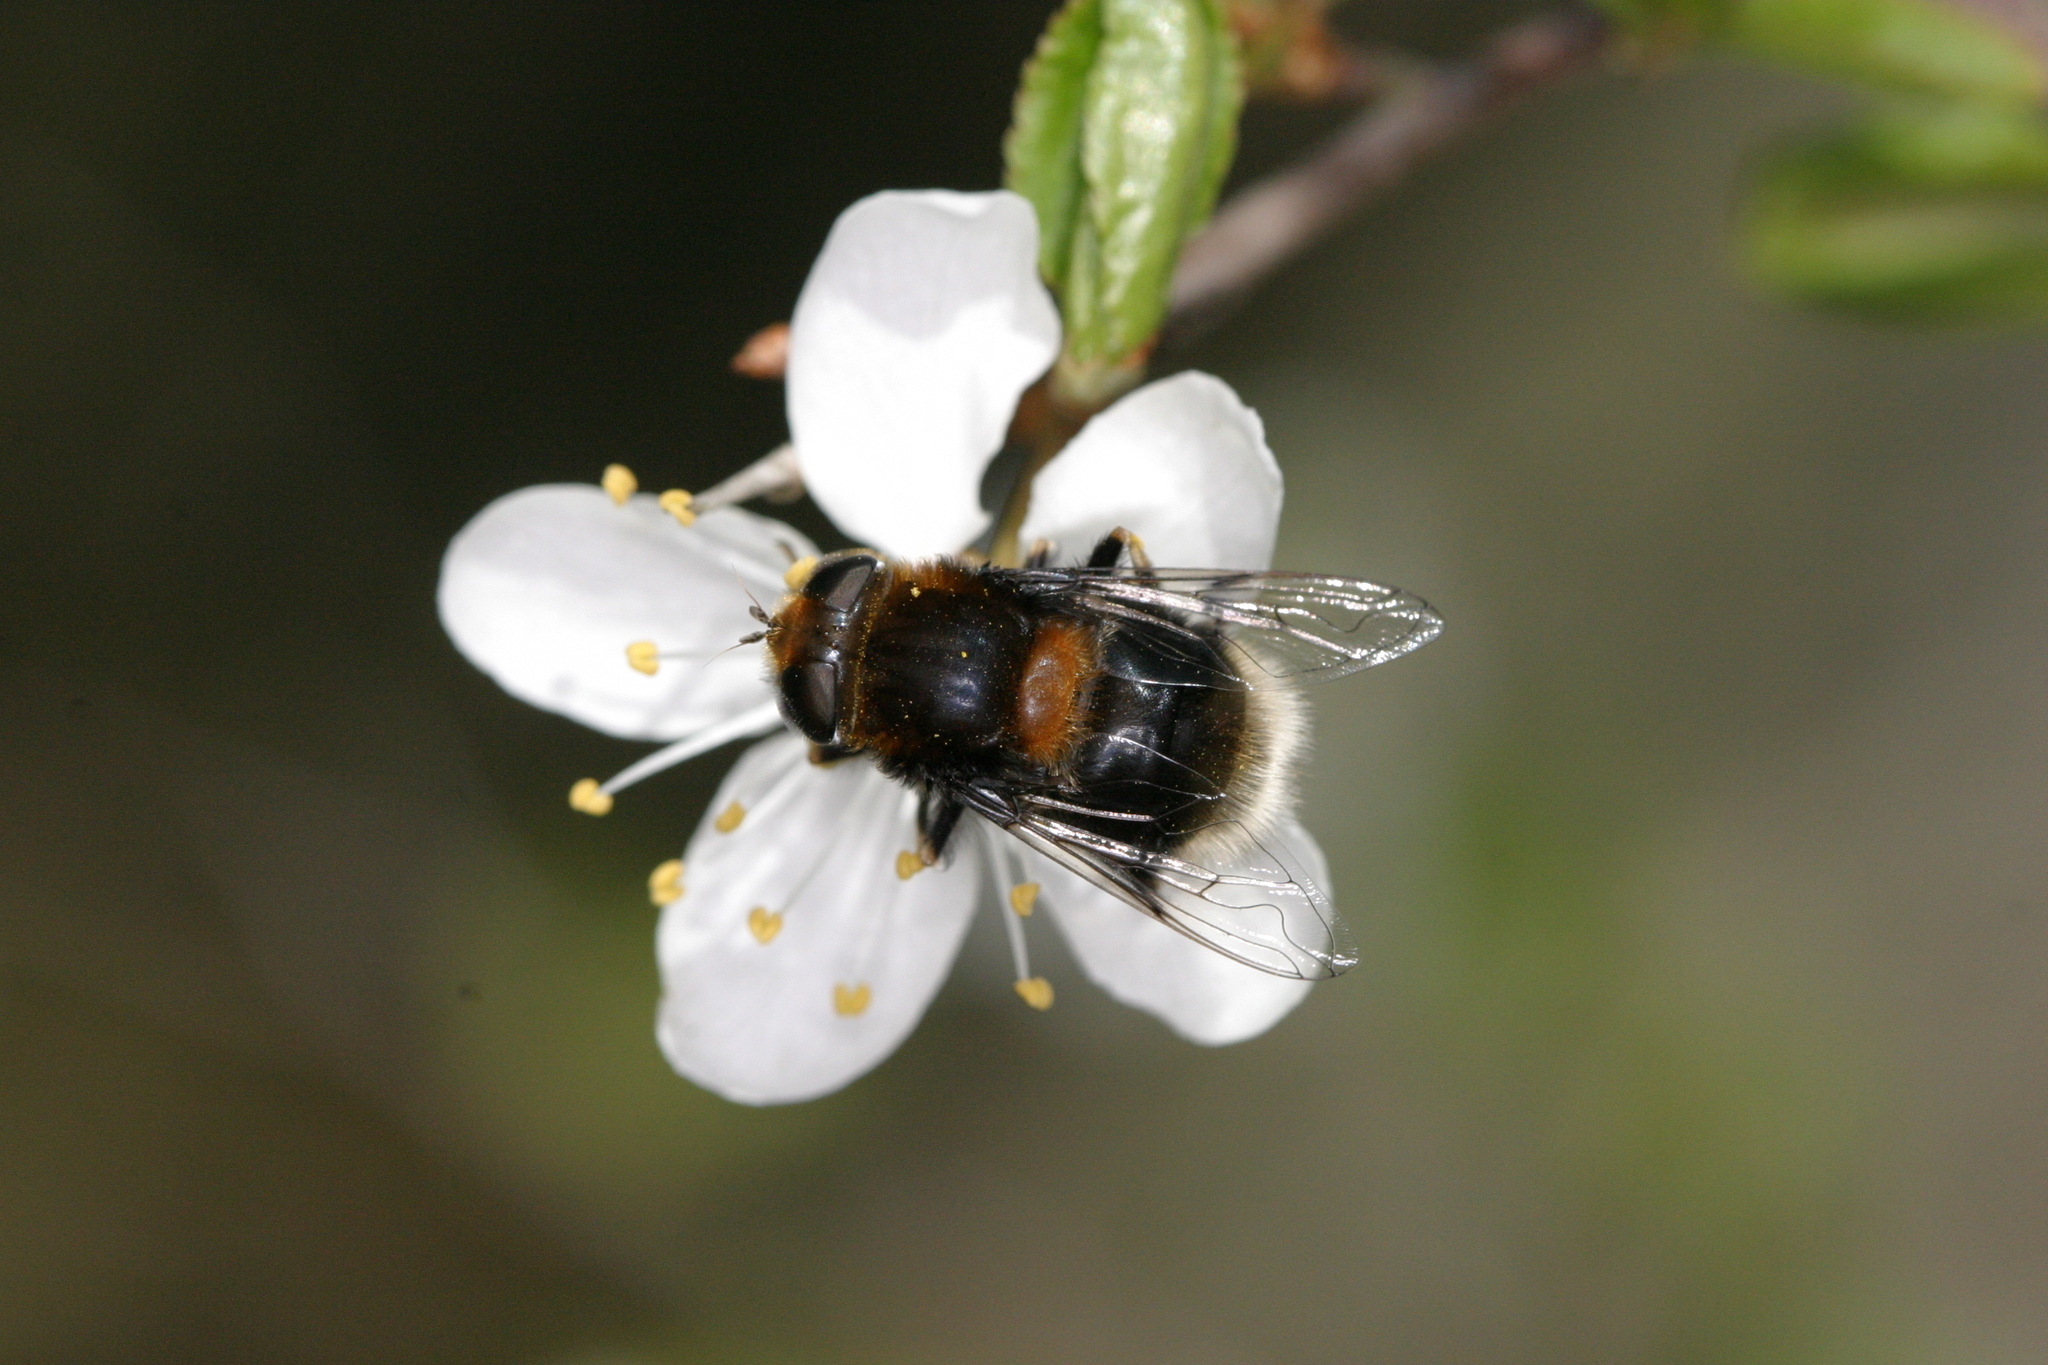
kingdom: Animalia
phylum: Arthropoda
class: Insecta
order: Diptera
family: Syrphidae
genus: Eristalis
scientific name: Eristalis intricaria
